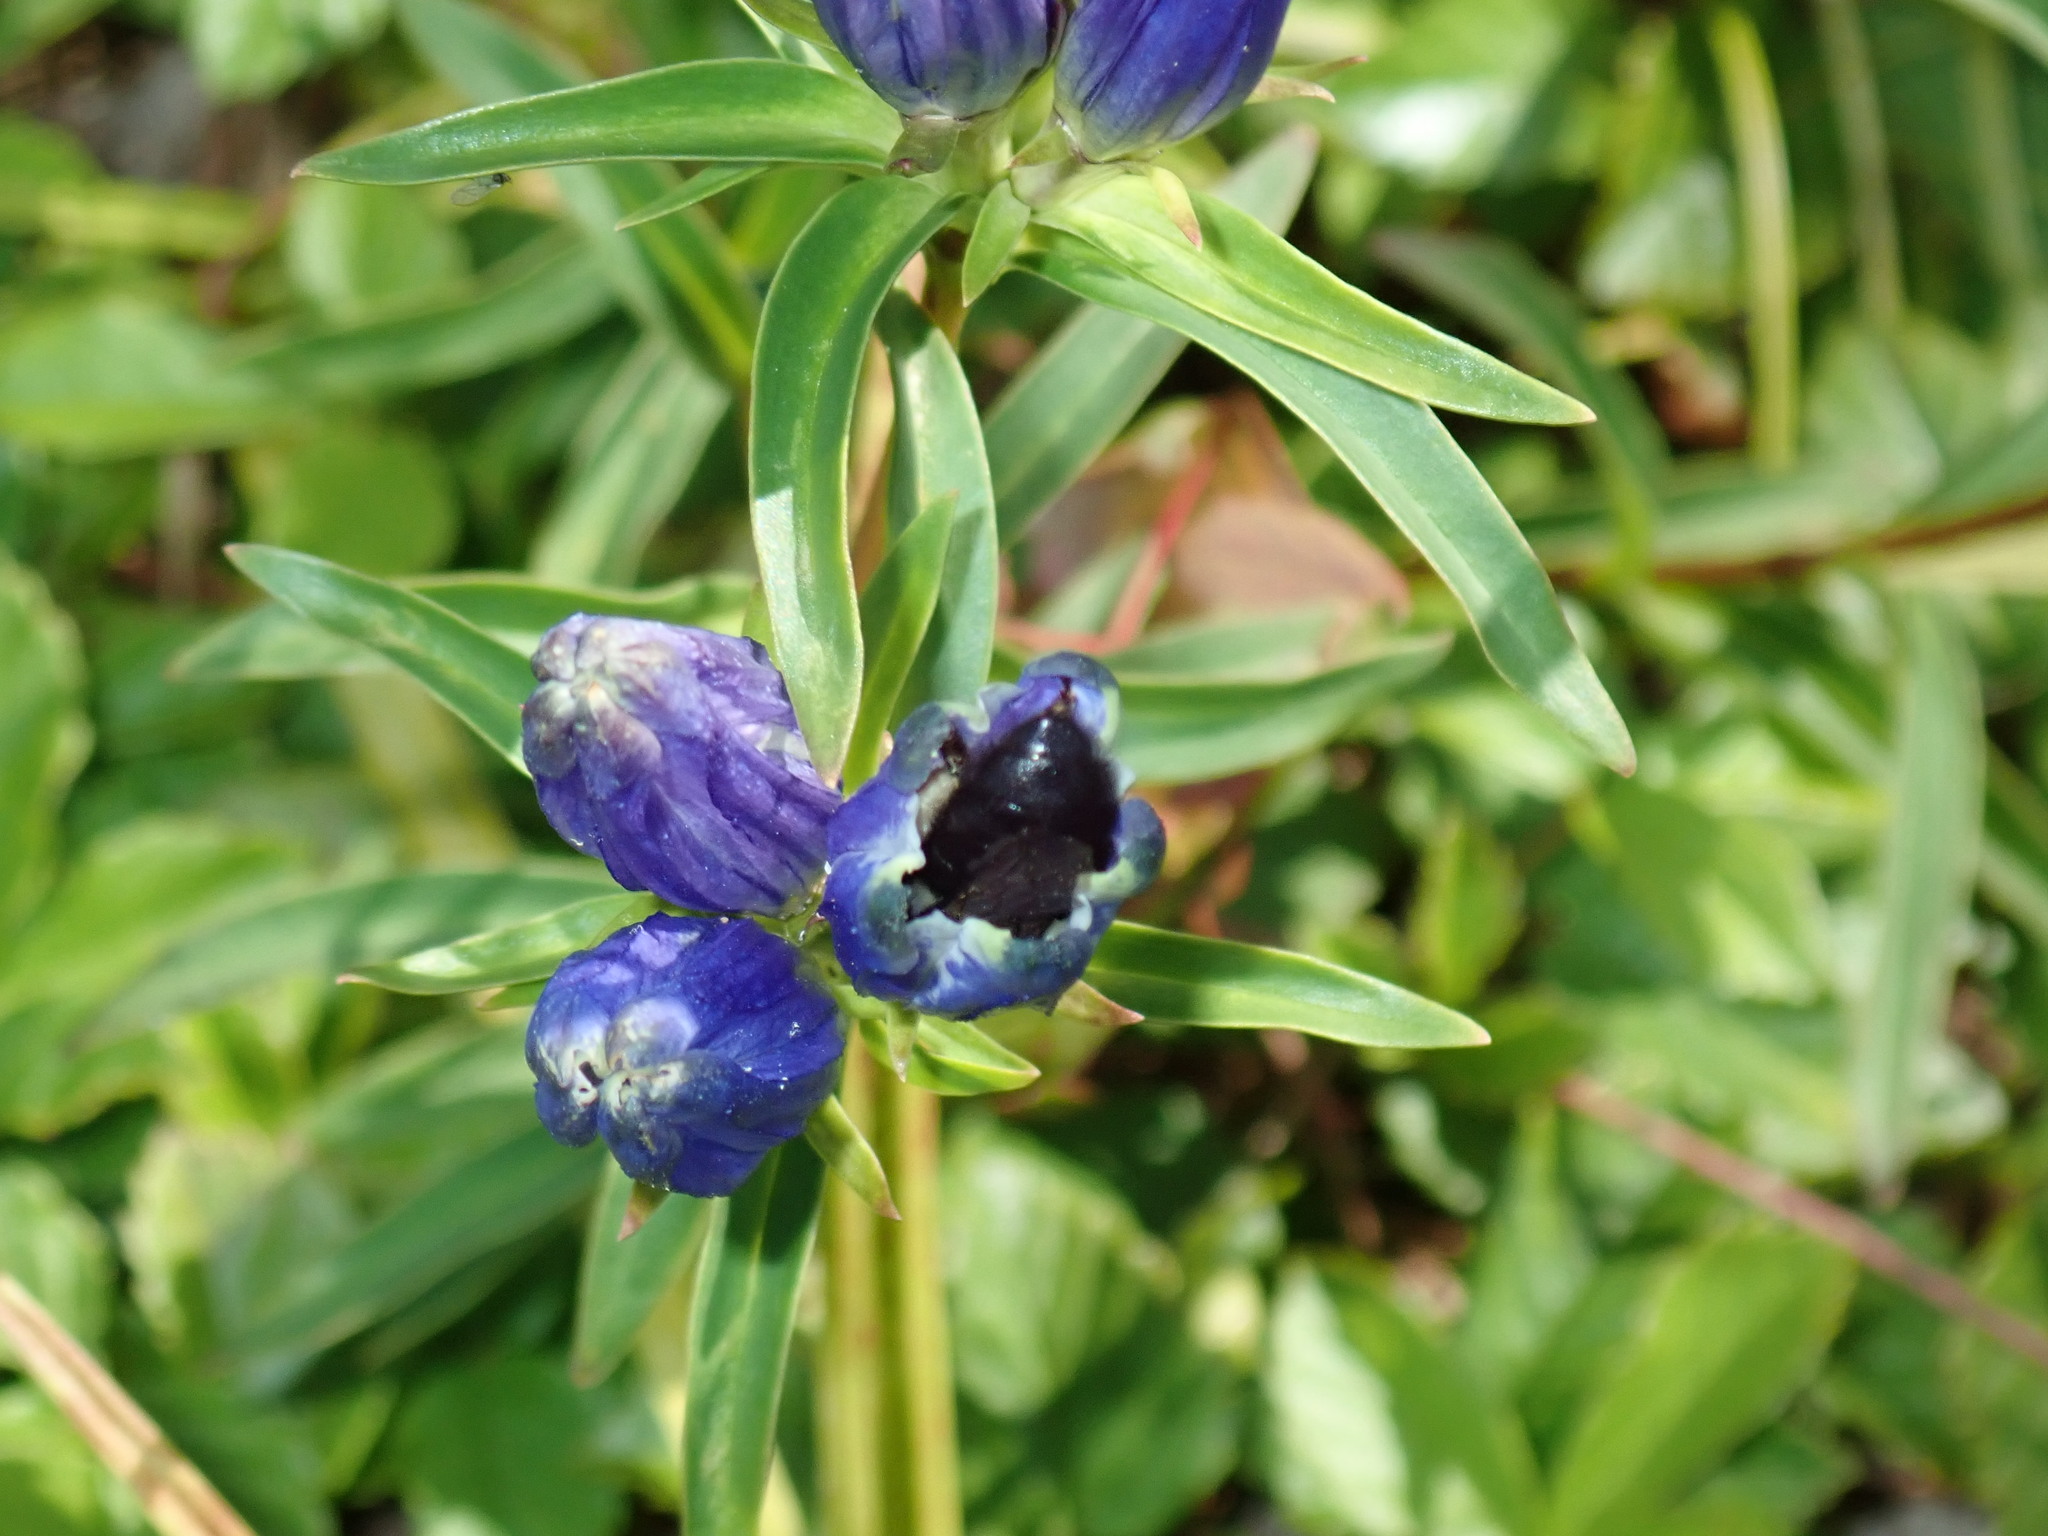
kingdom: Plantae
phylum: Tracheophyta
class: Magnoliopsida
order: Gentianales
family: Gentianaceae
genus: Gentiana
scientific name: Gentiana linearis
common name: Bastard gentian
